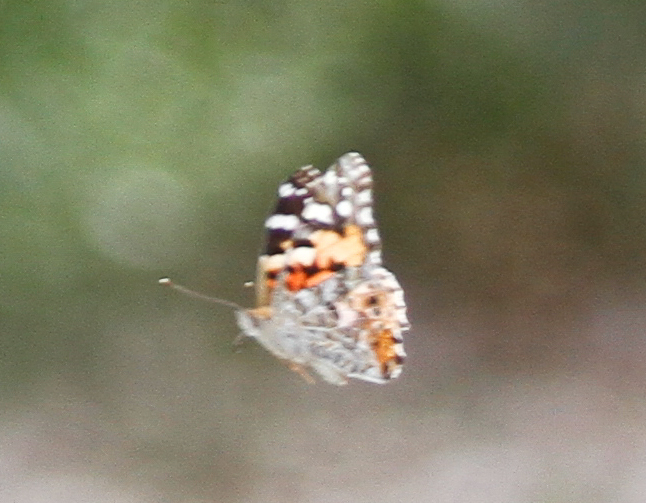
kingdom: Animalia
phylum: Arthropoda
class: Insecta
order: Lepidoptera
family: Nymphalidae
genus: Vanessa
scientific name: Vanessa cardui
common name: Painted lady
